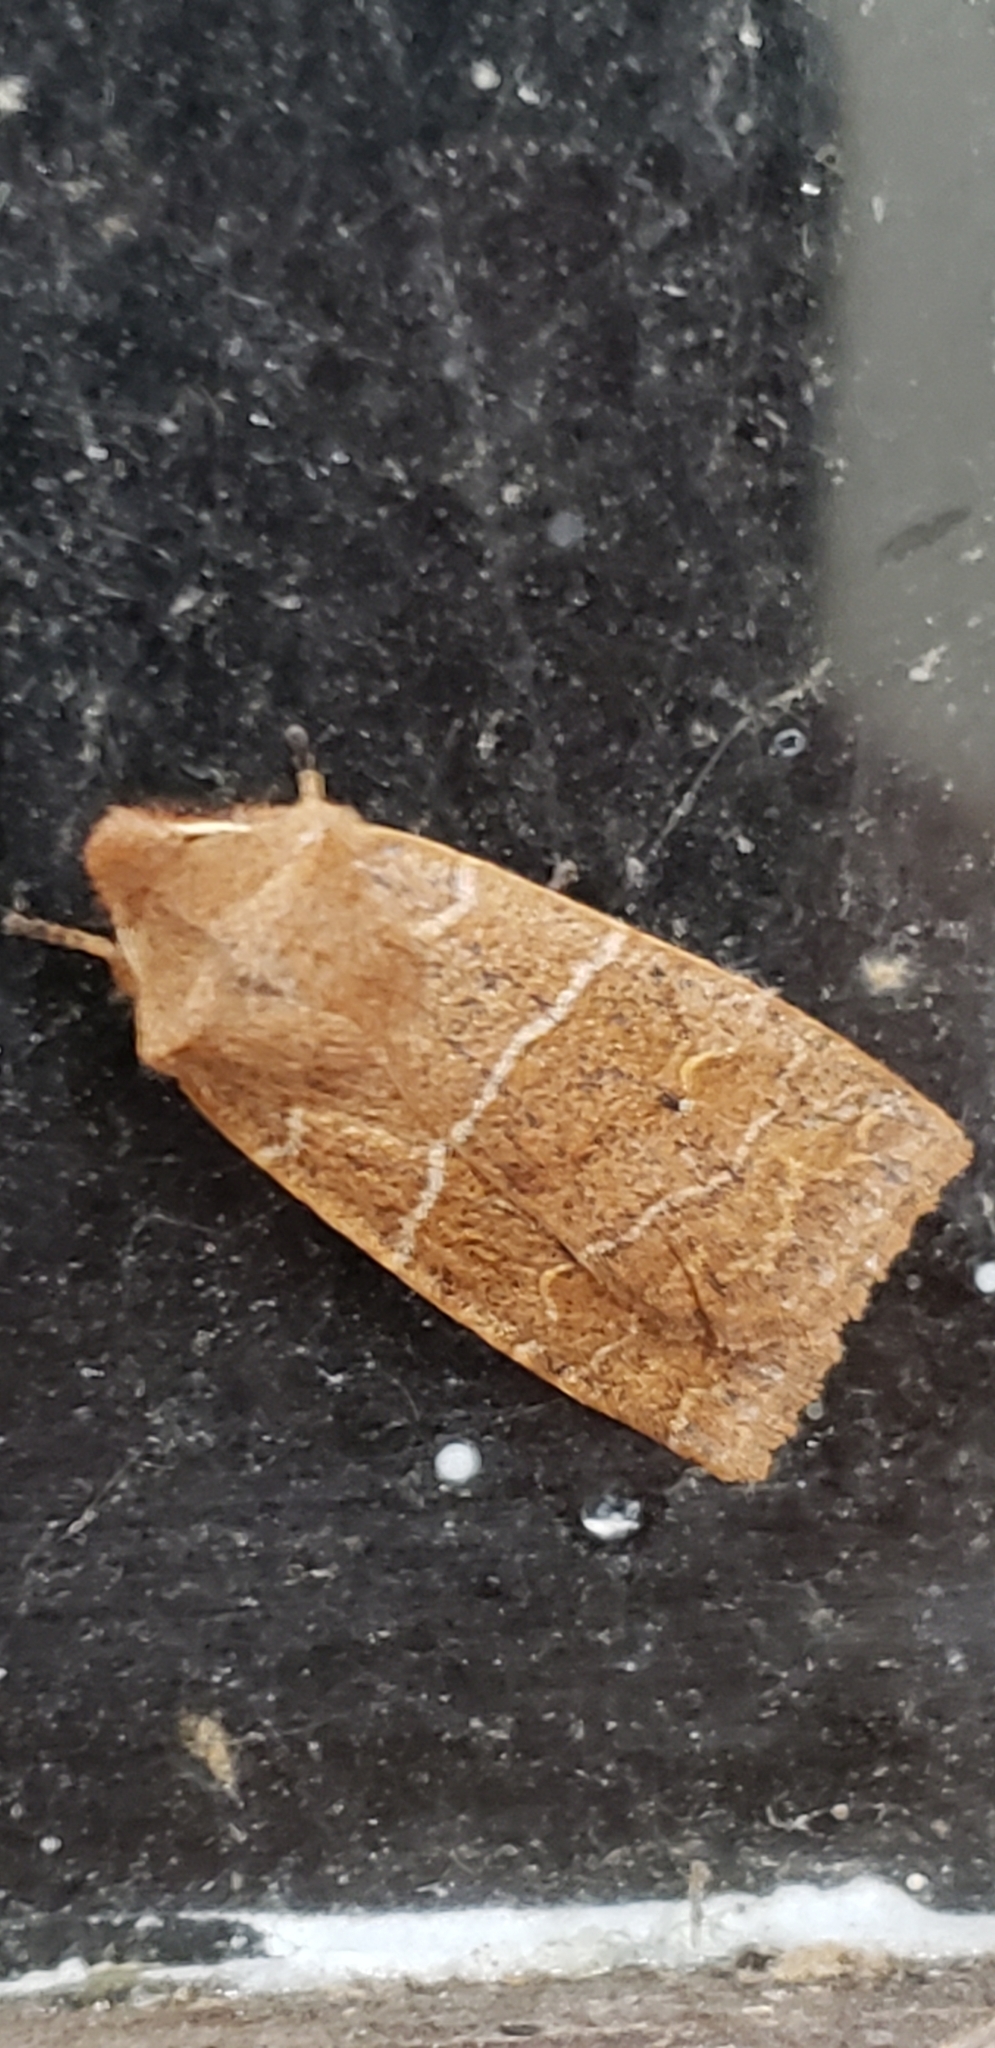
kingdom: Animalia
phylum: Arthropoda
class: Insecta
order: Lepidoptera
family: Noctuidae
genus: Eupsilia
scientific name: Eupsilia morrisoni
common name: Morrison's sallow
